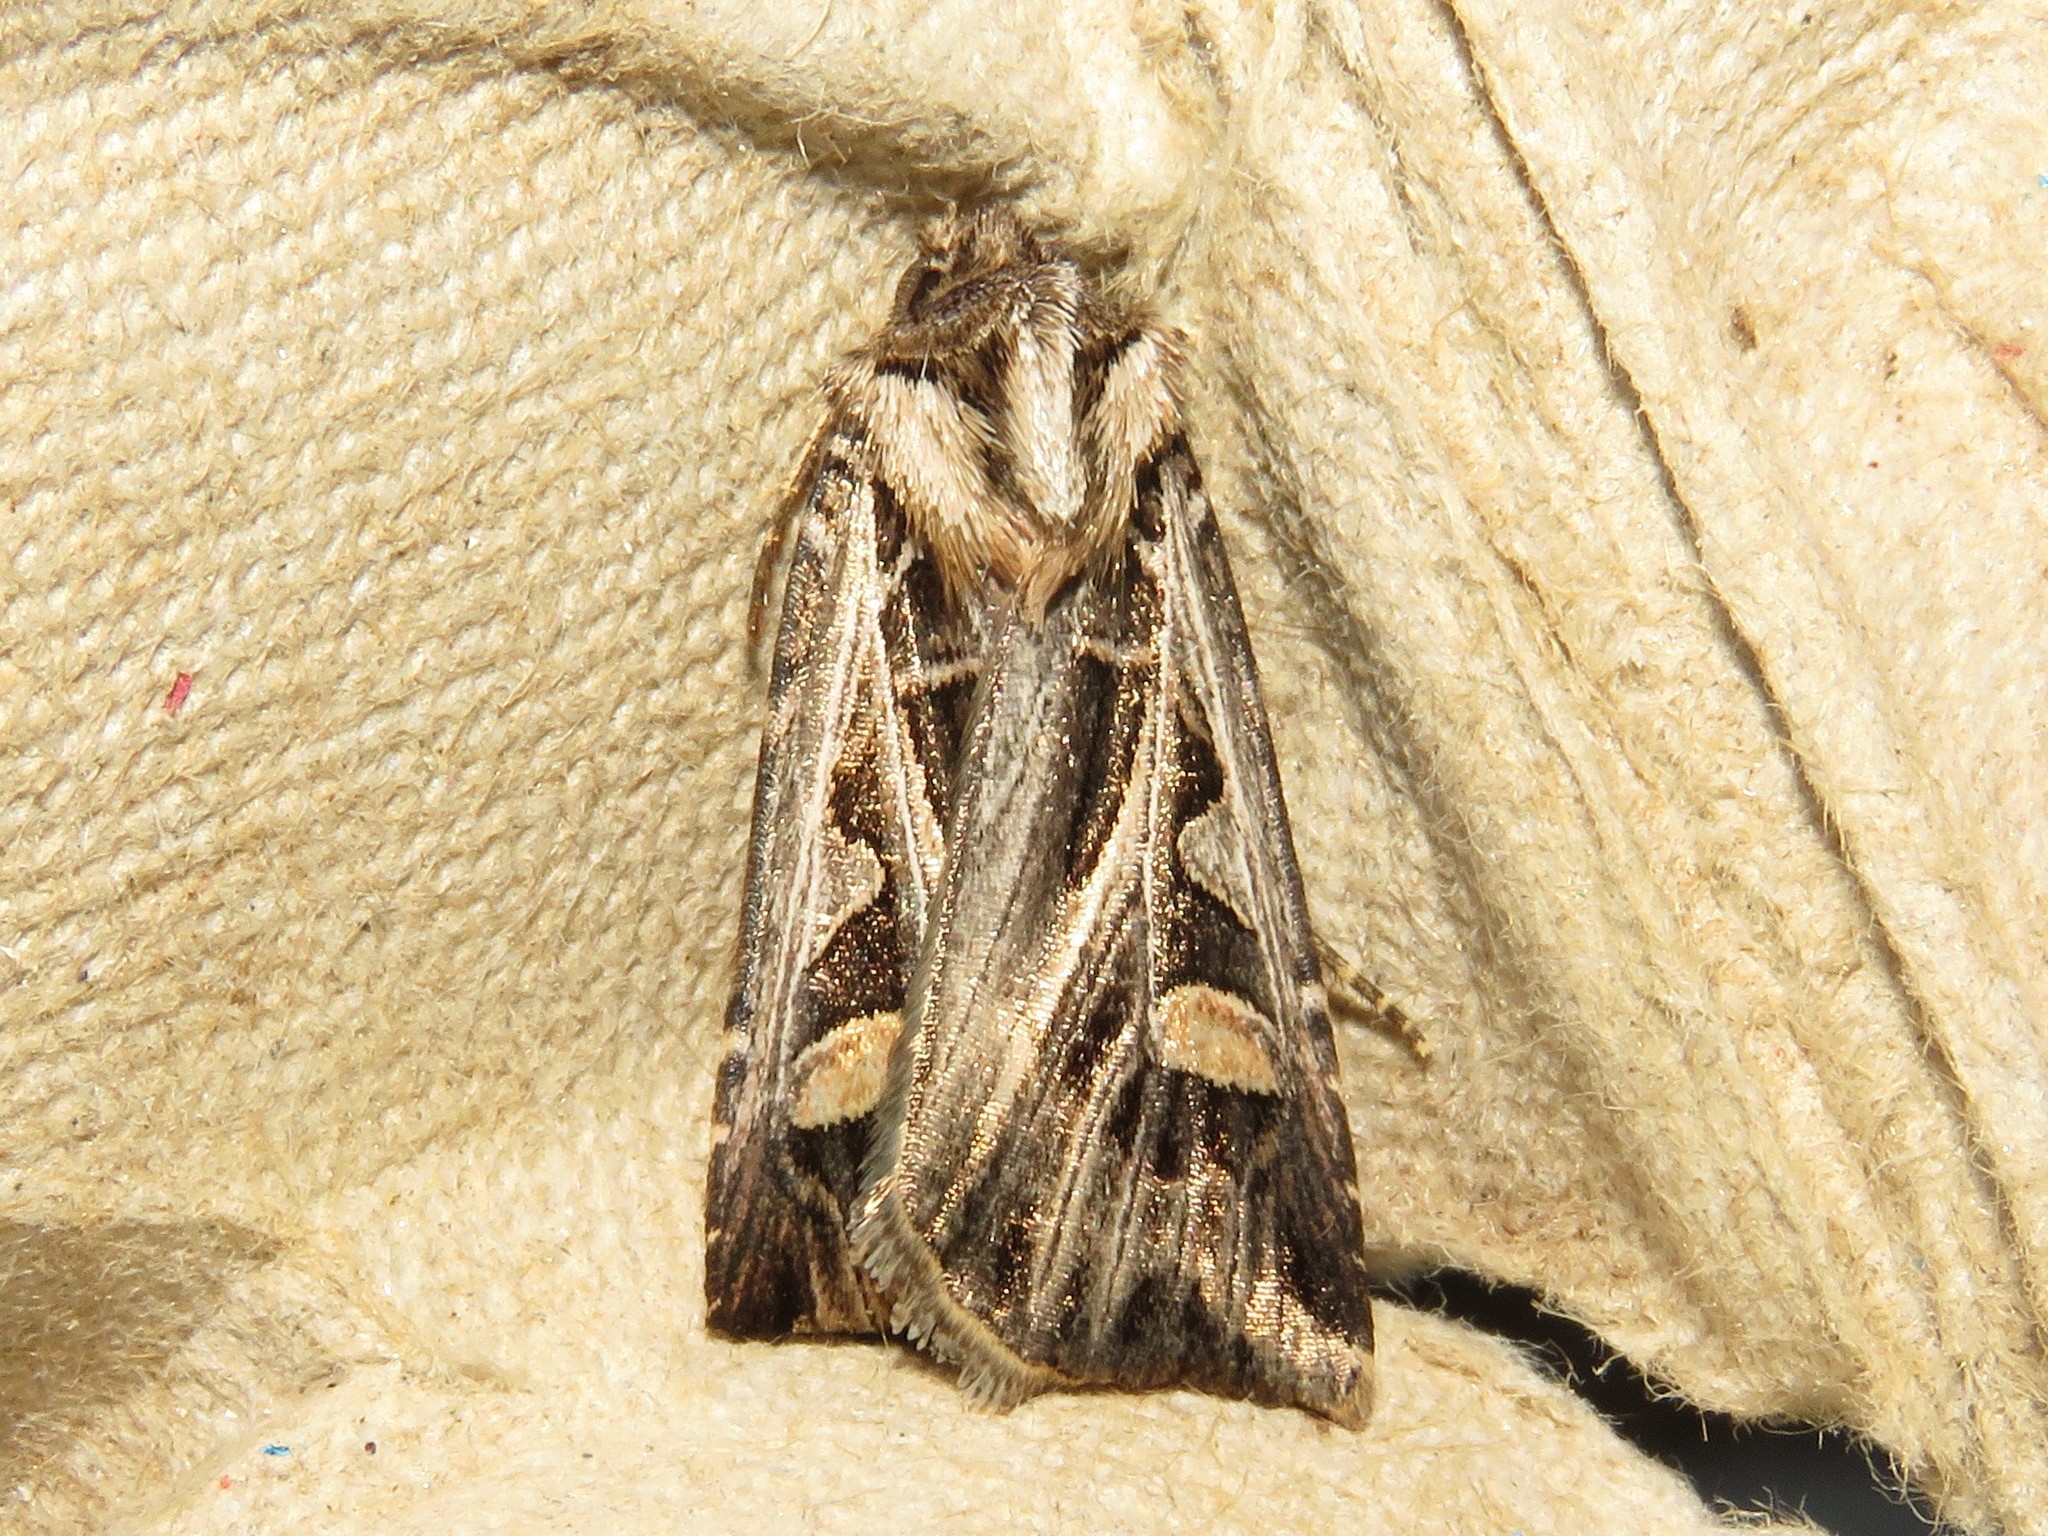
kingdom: Animalia
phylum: Arthropoda
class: Insecta
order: Lepidoptera
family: Noctuidae
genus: Feltia
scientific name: Feltia jaculifera
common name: Dingy cutworm moth
